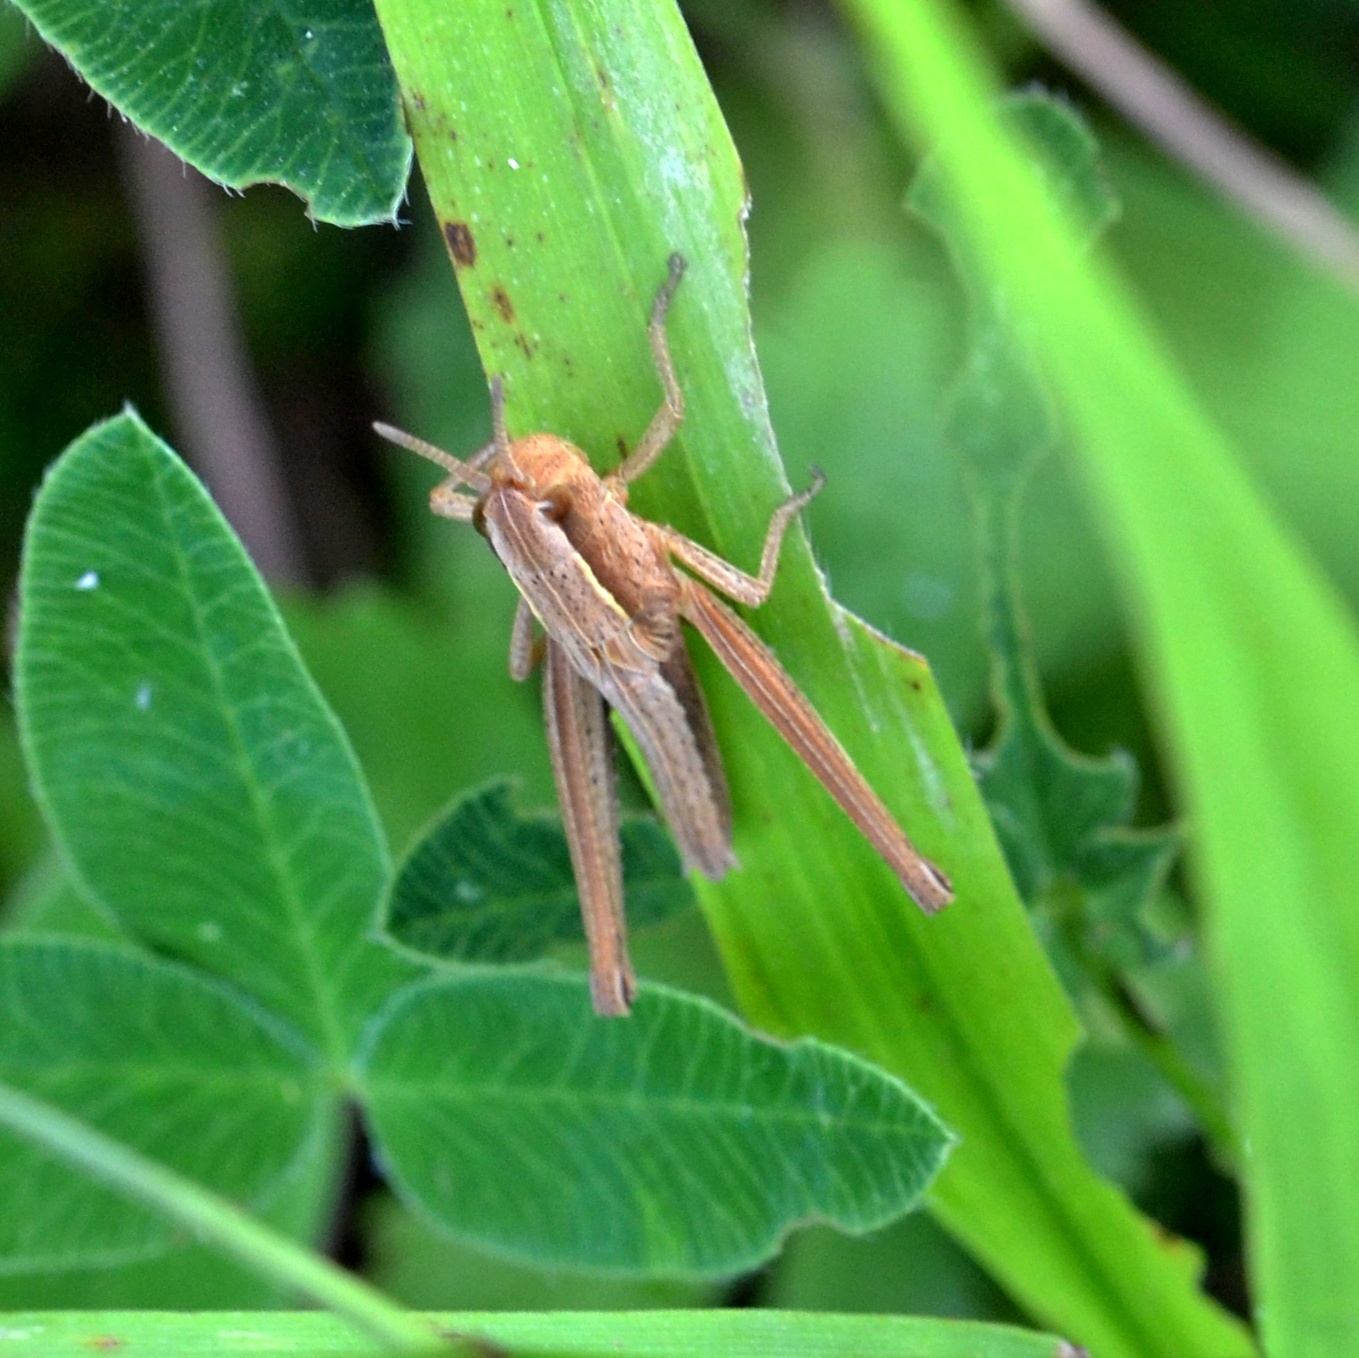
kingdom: Animalia
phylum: Arthropoda
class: Insecta
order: Orthoptera
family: Acrididae
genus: Chrysochraon
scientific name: Chrysochraon dispar
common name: Large gold grasshopper
